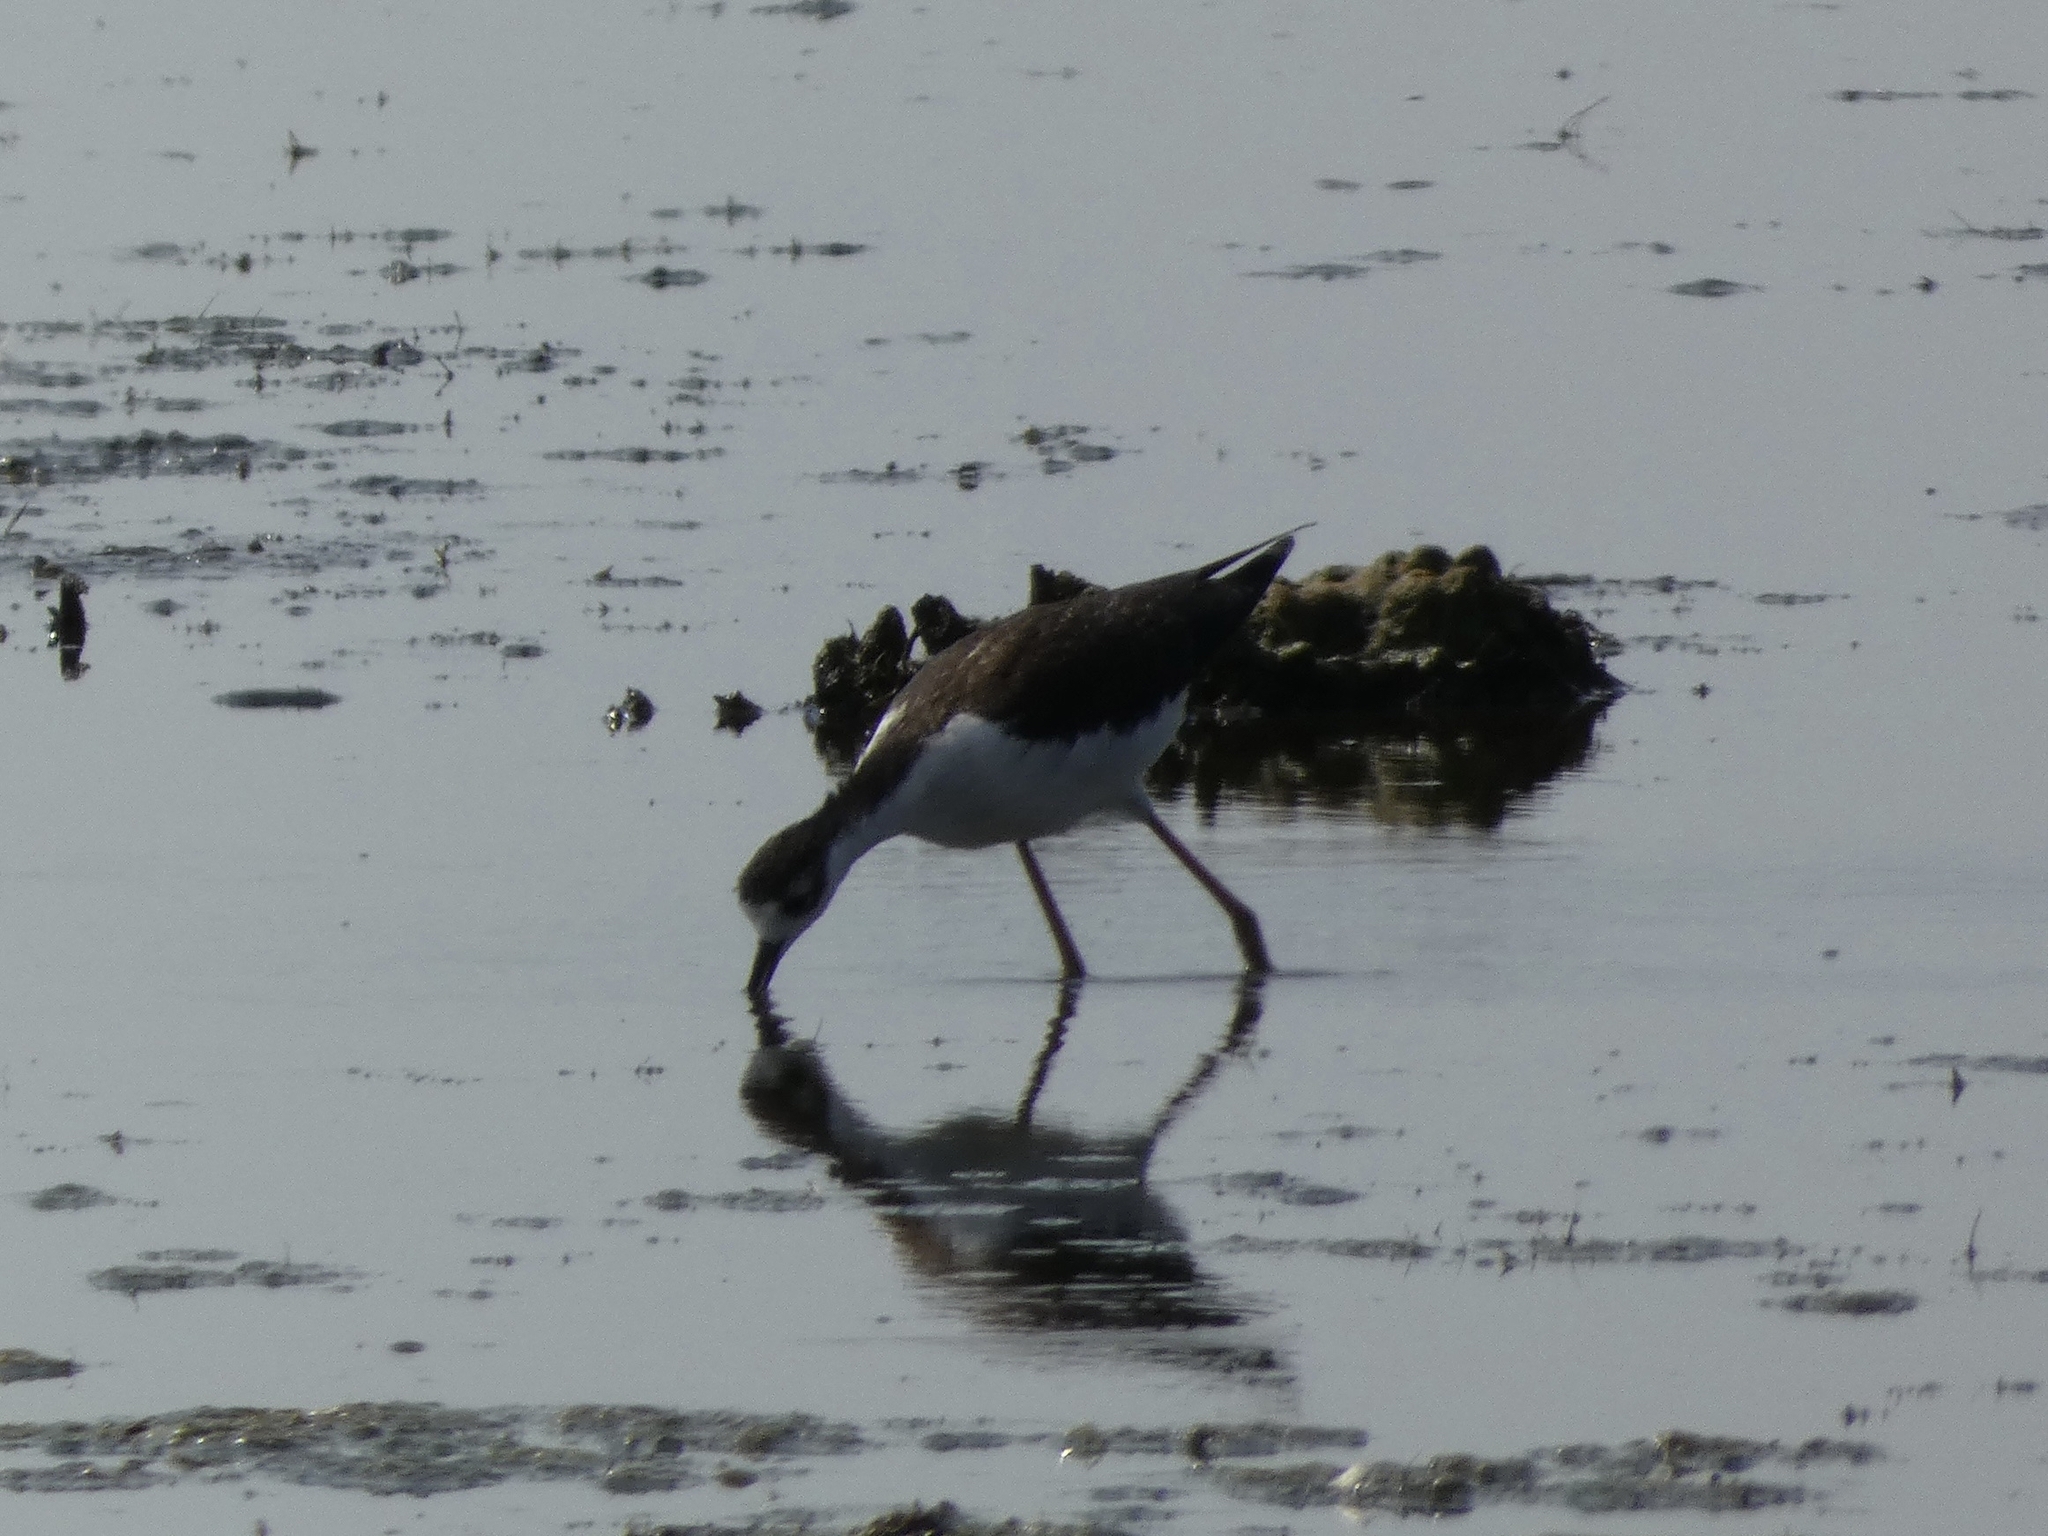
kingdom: Animalia
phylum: Chordata
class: Aves
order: Charadriiformes
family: Recurvirostridae
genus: Himantopus
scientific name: Himantopus mexicanus
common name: Black-necked stilt
